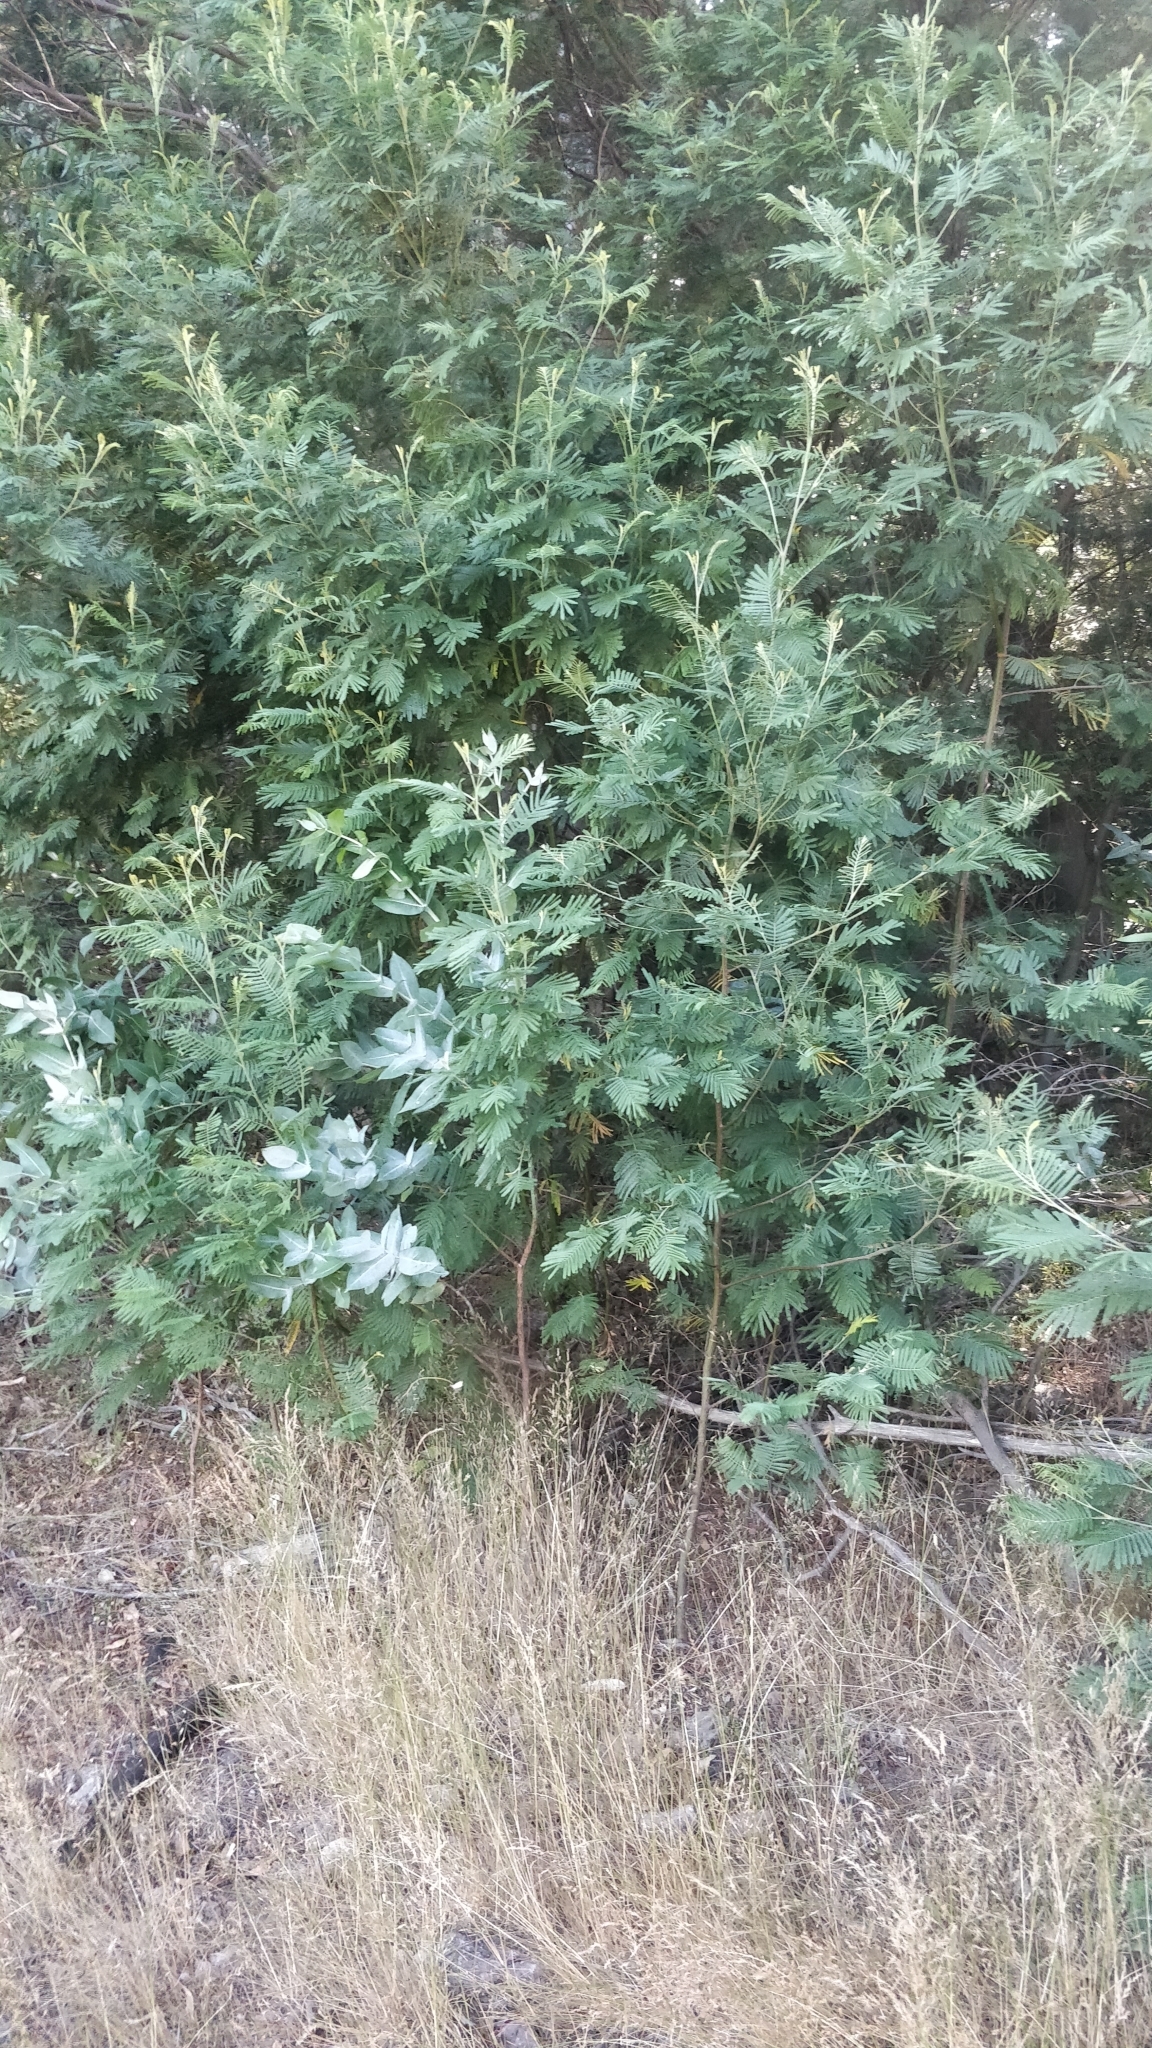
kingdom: Plantae
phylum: Tracheophyta
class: Magnoliopsida
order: Fabales
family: Fabaceae
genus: Acacia
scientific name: Acacia mearnsii
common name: Black wattle
